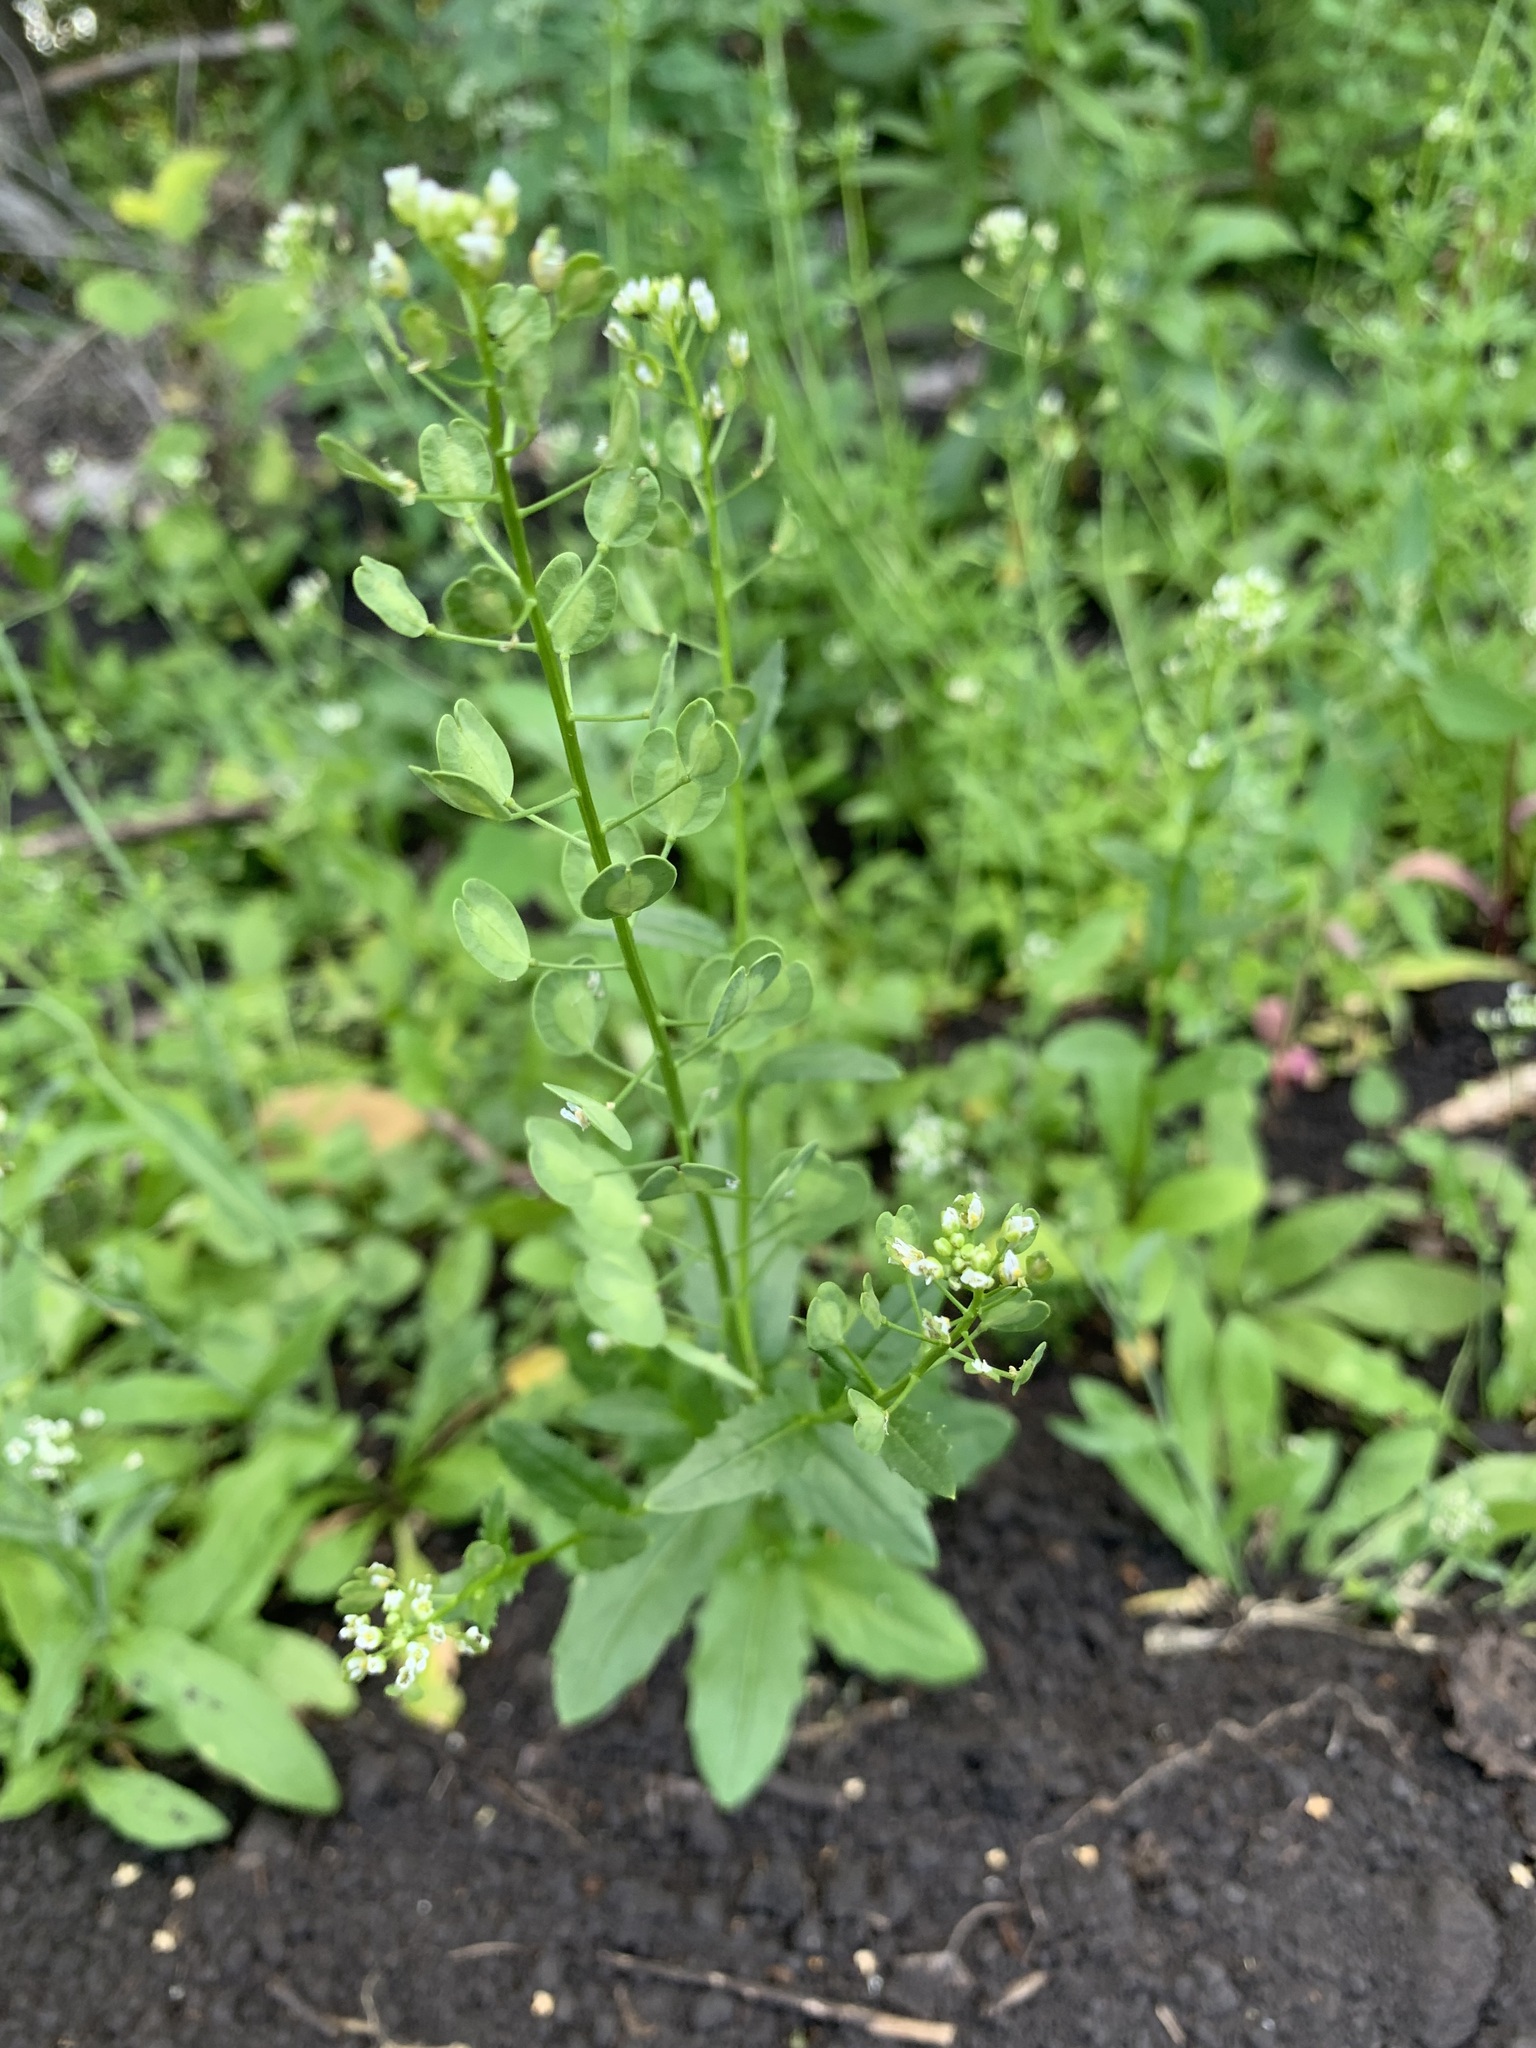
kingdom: Plantae
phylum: Tracheophyta
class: Magnoliopsida
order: Brassicales
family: Brassicaceae
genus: Thlaspi
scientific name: Thlaspi arvense
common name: Field pennycress
